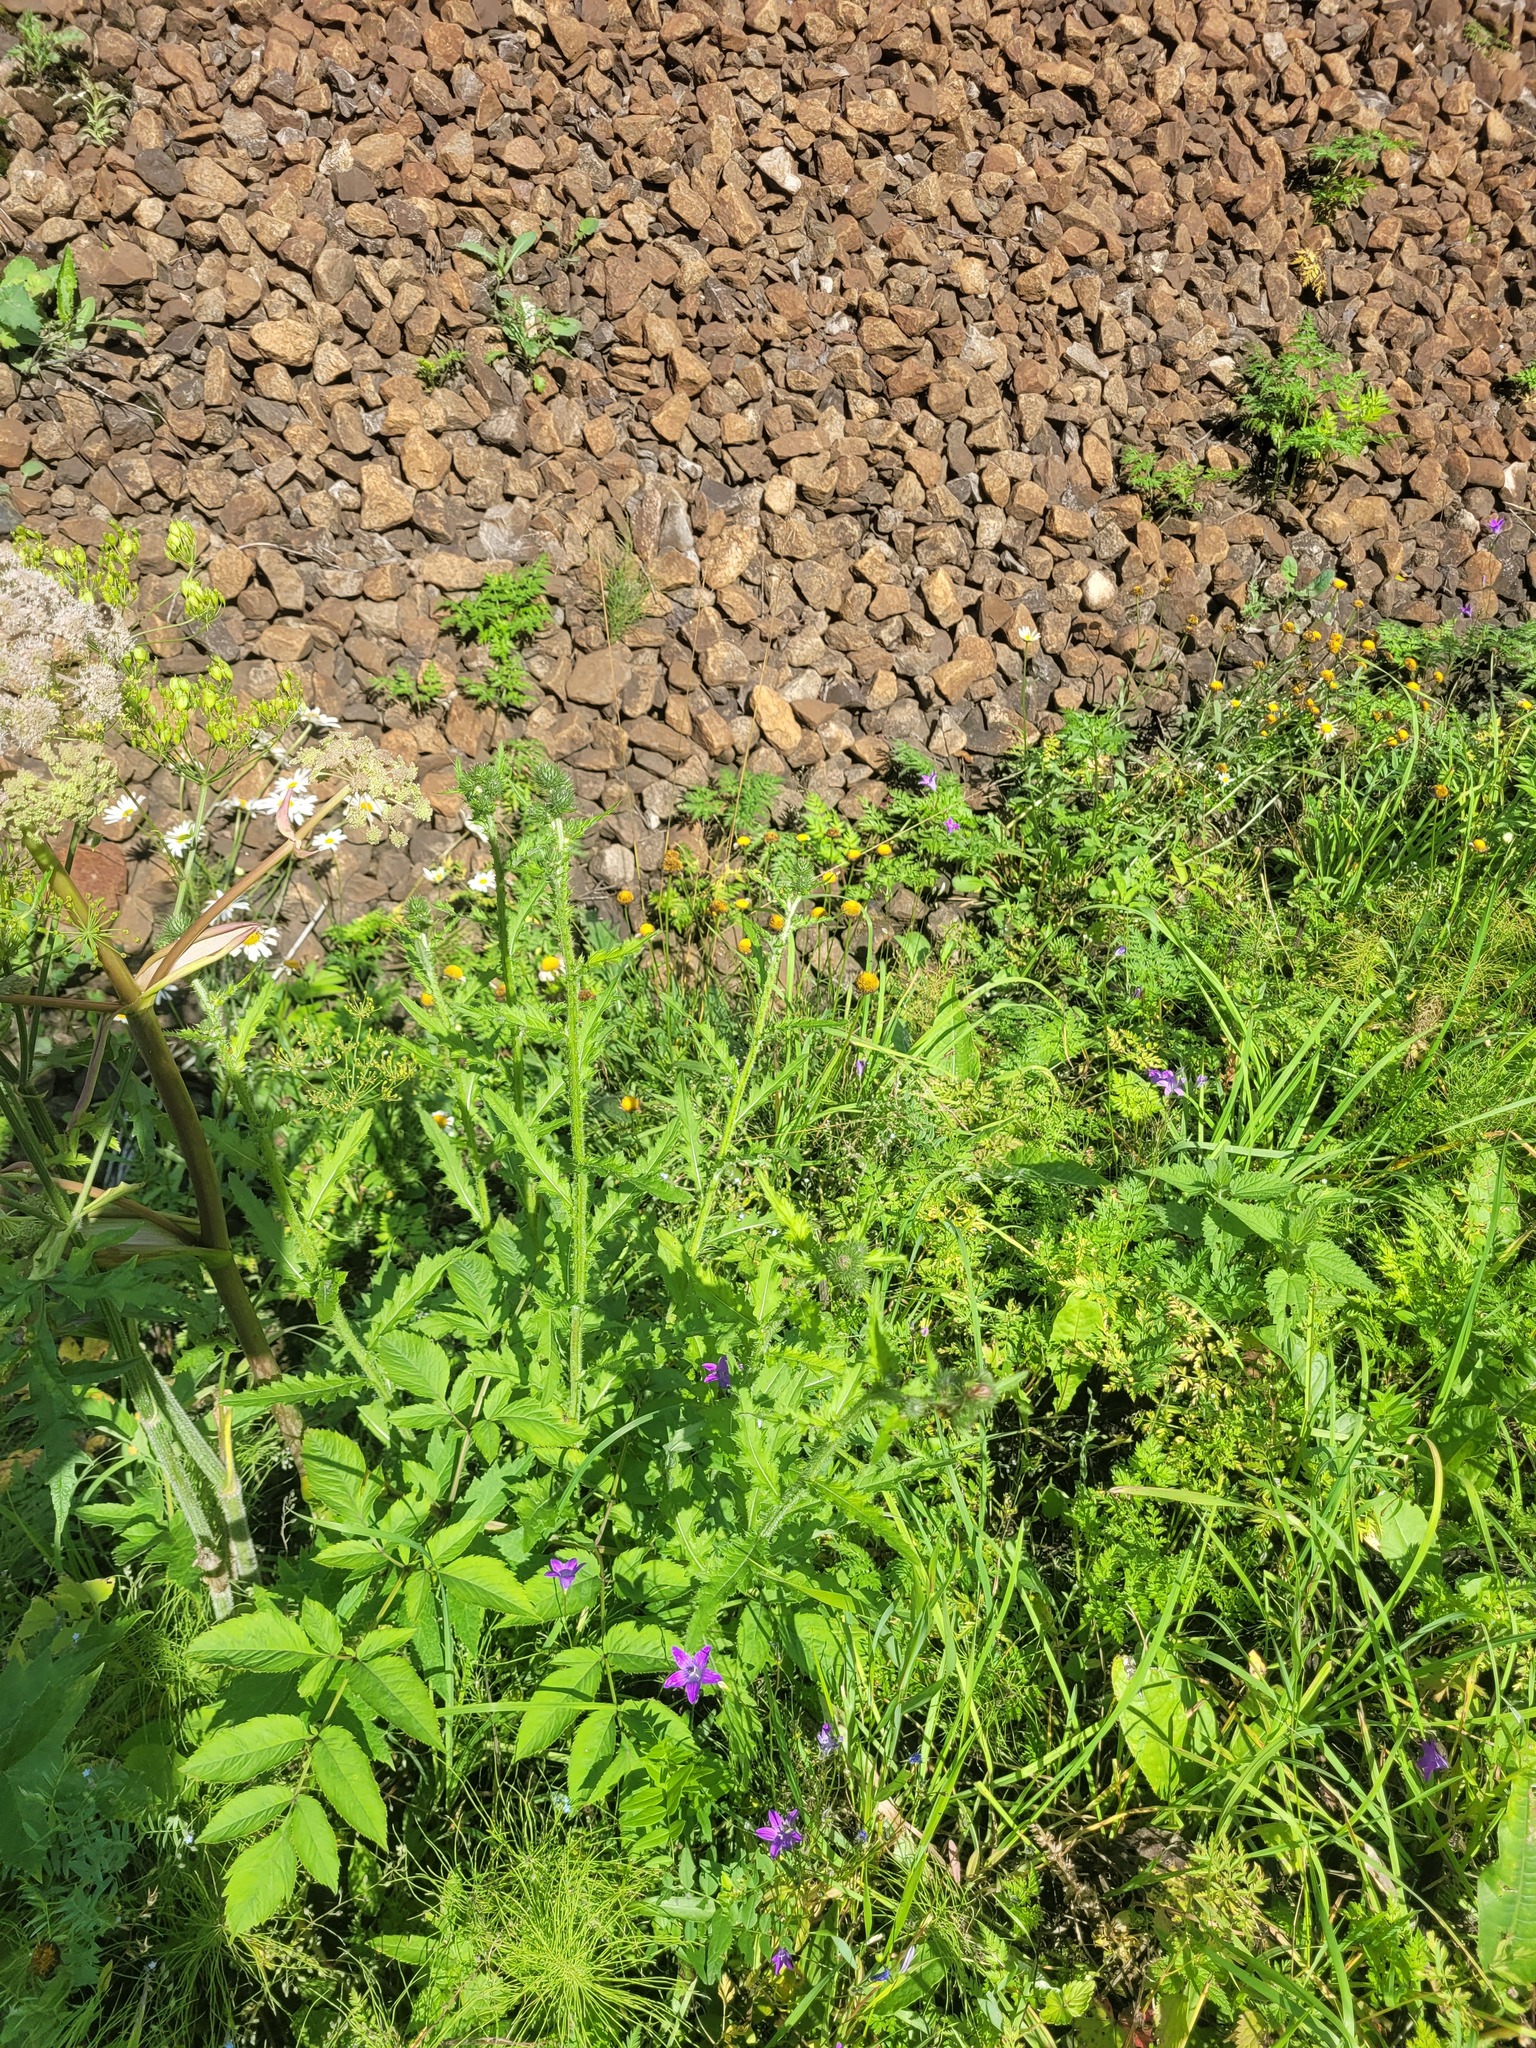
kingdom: Plantae
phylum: Tracheophyta
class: Magnoliopsida
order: Asterales
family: Asteraceae
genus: Carduus
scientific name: Carduus crispus
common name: Welted thistle
